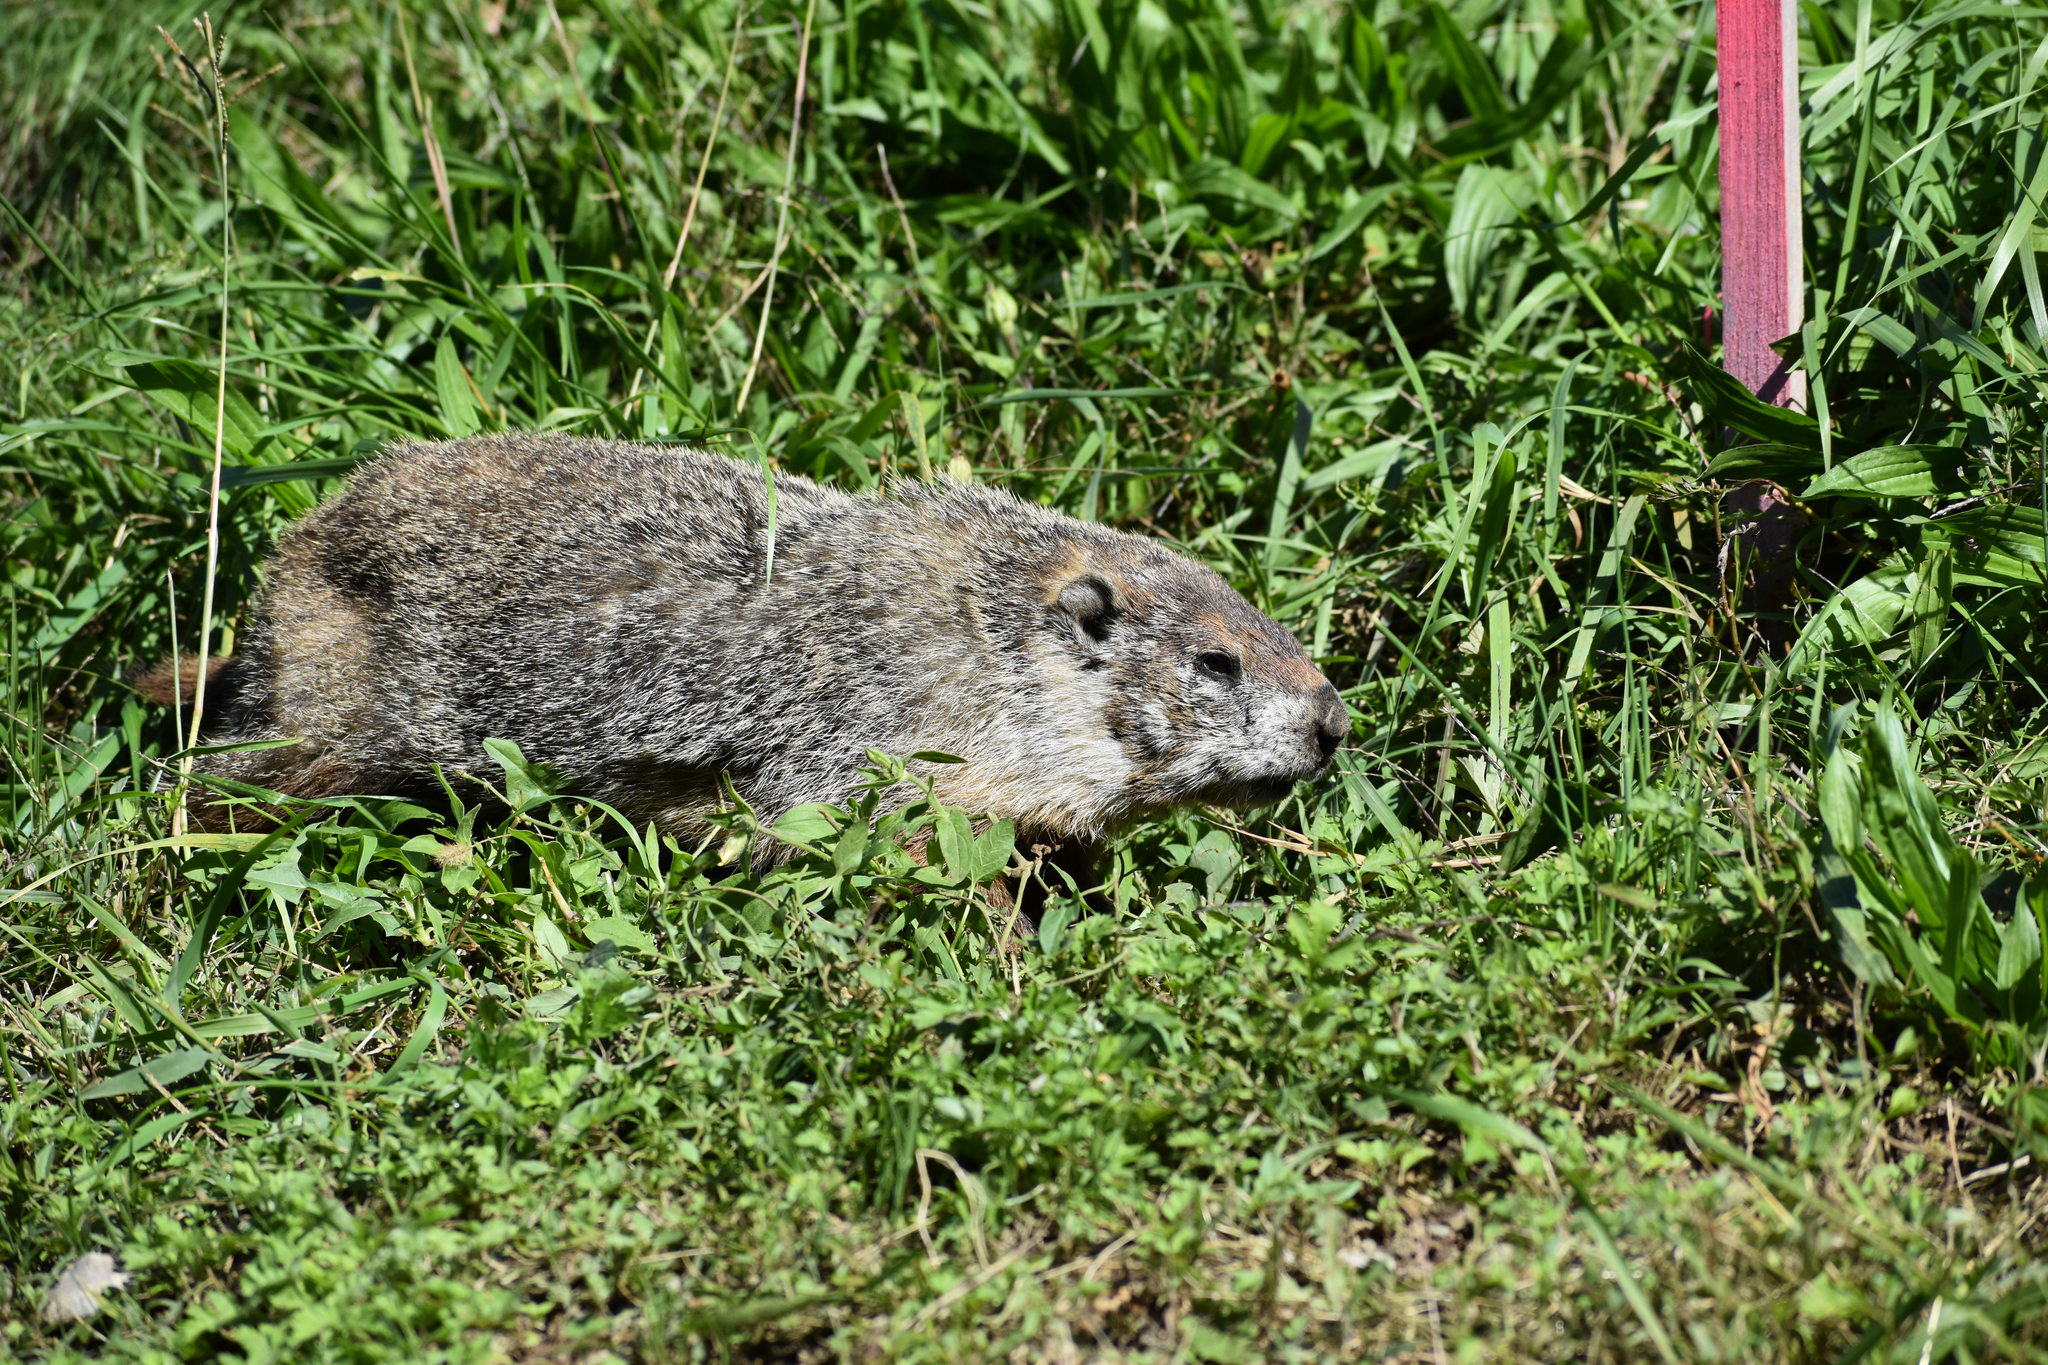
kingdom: Animalia
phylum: Chordata
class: Mammalia
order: Rodentia
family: Sciuridae
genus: Marmota
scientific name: Marmota monax
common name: Groundhog
